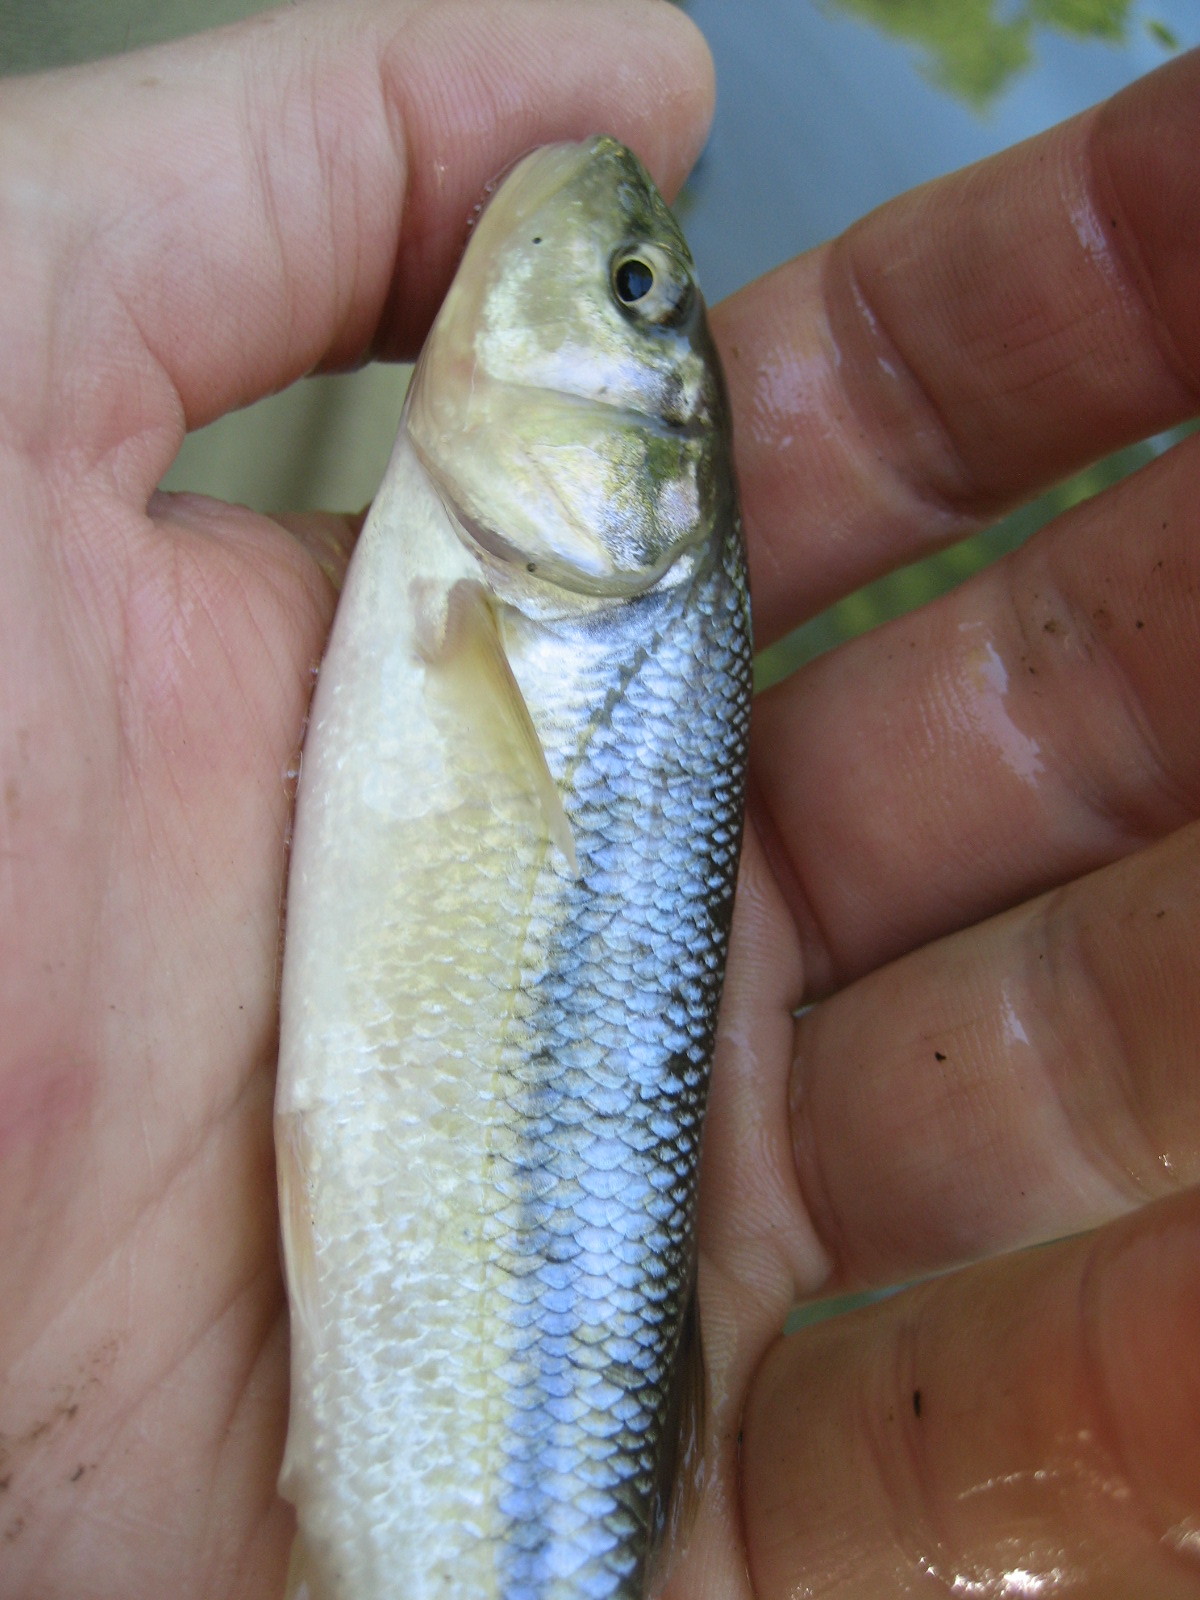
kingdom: Animalia
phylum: Chordata
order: Cypriniformes
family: Cyprinidae
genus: Semotilus
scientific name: Semotilus atromaculatus
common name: Creek chub
